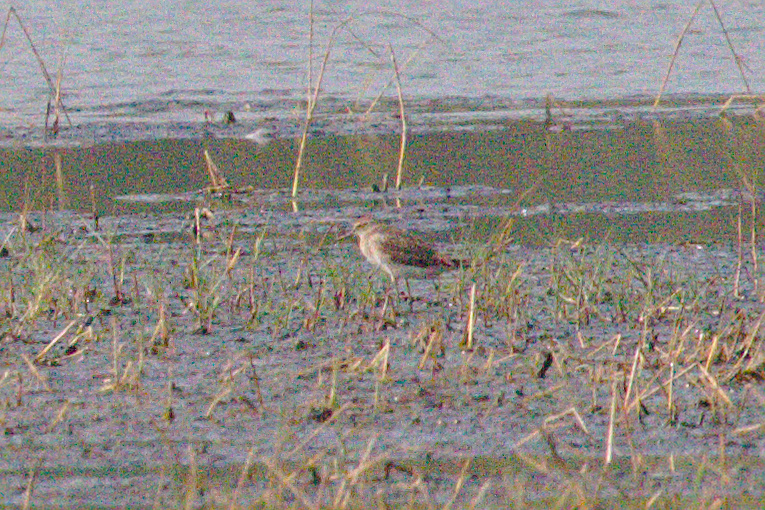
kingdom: Animalia
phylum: Chordata
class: Aves
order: Charadriiformes
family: Scolopacidae
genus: Tringa
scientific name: Tringa glareola
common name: Wood sandpiper
